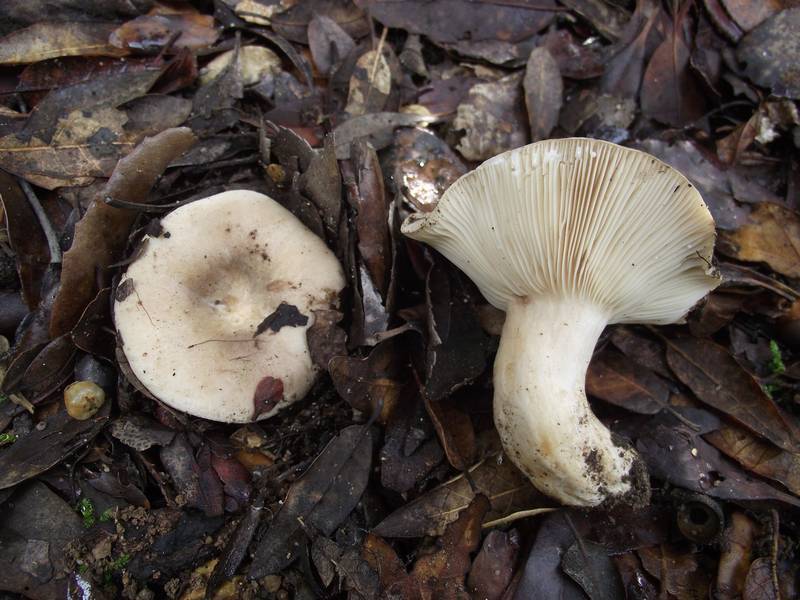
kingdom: Fungi
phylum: Basidiomycota
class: Agaricomycetes
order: Russulales
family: Russulaceae
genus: Lactarius
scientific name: Lactarius ilicis
